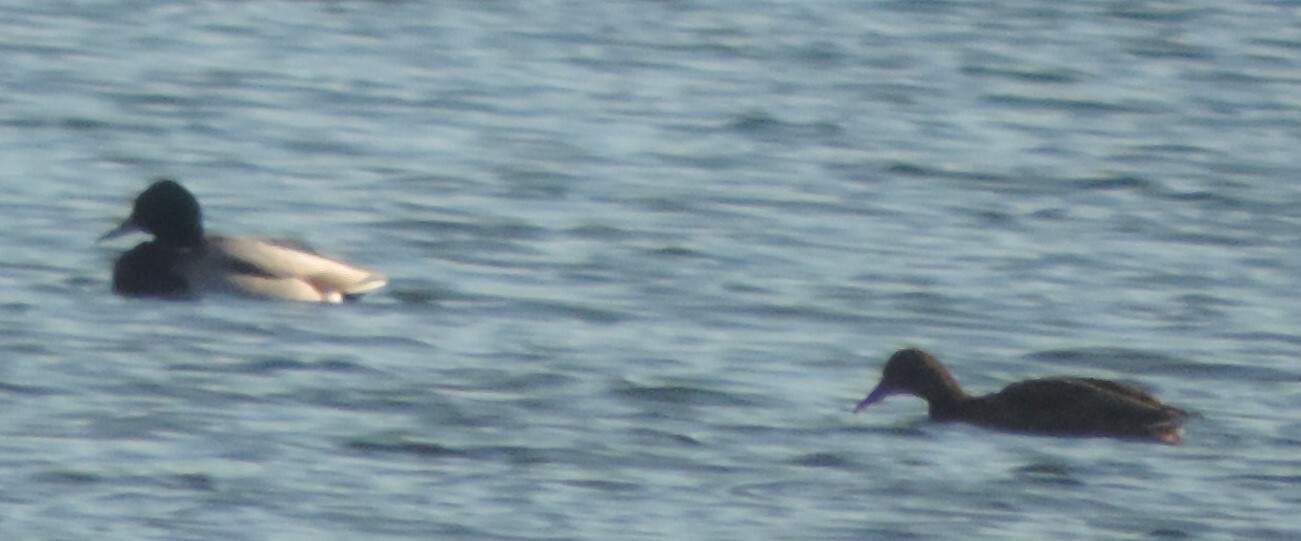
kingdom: Animalia
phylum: Chordata
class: Aves
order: Anseriformes
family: Anatidae
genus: Anas
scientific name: Anas platyrhynchos
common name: Mallard
